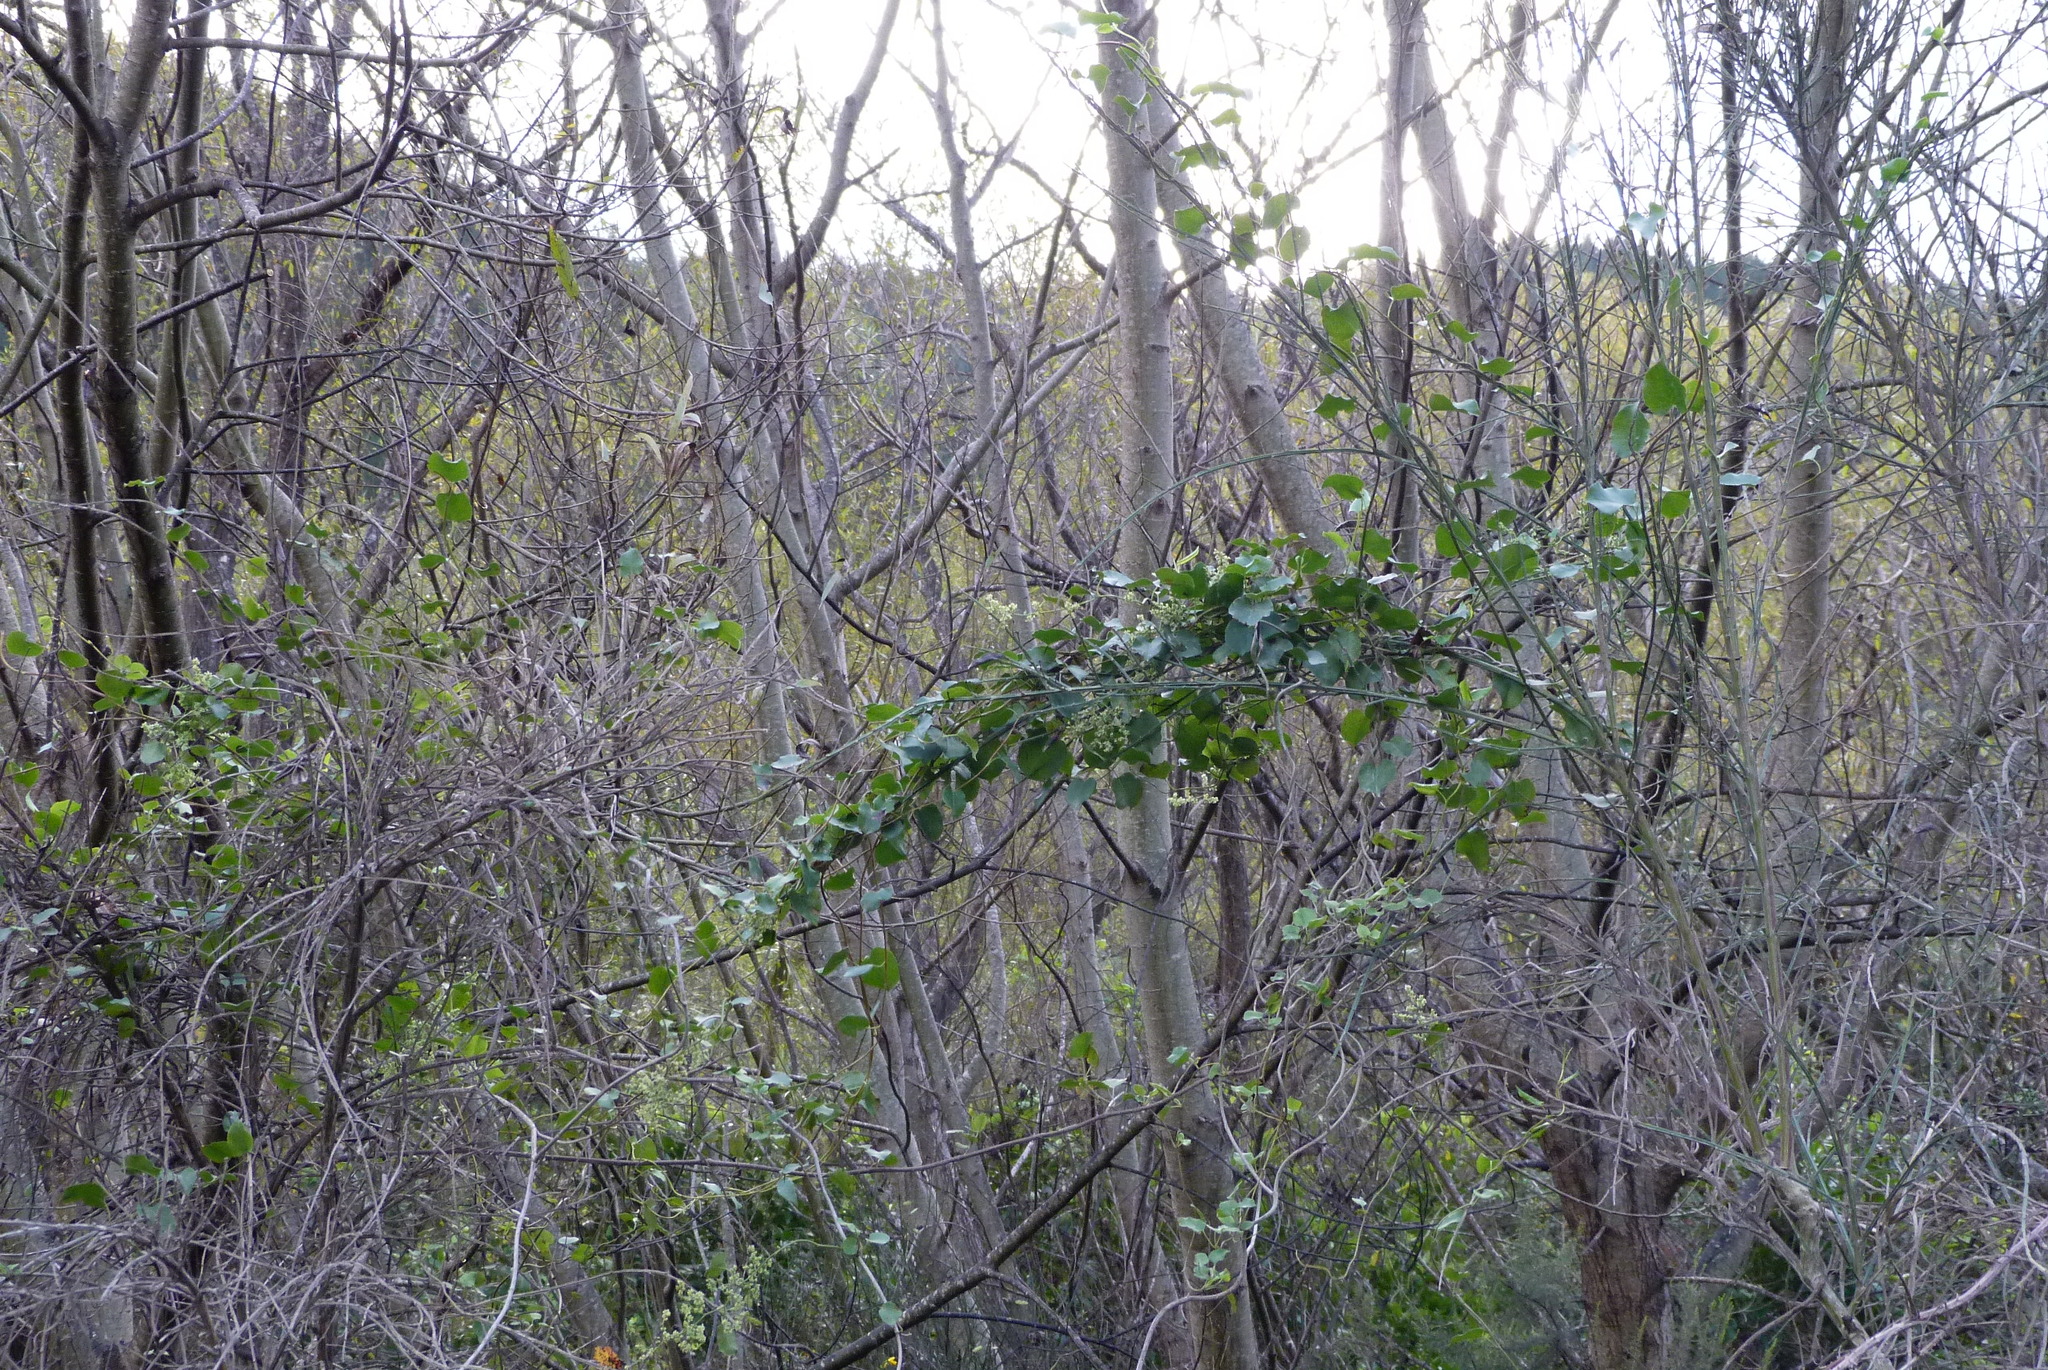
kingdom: Plantae
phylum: Tracheophyta
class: Magnoliopsida
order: Caryophyllales
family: Polygonaceae
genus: Muehlenbeckia
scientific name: Muehlenbeckia australis
